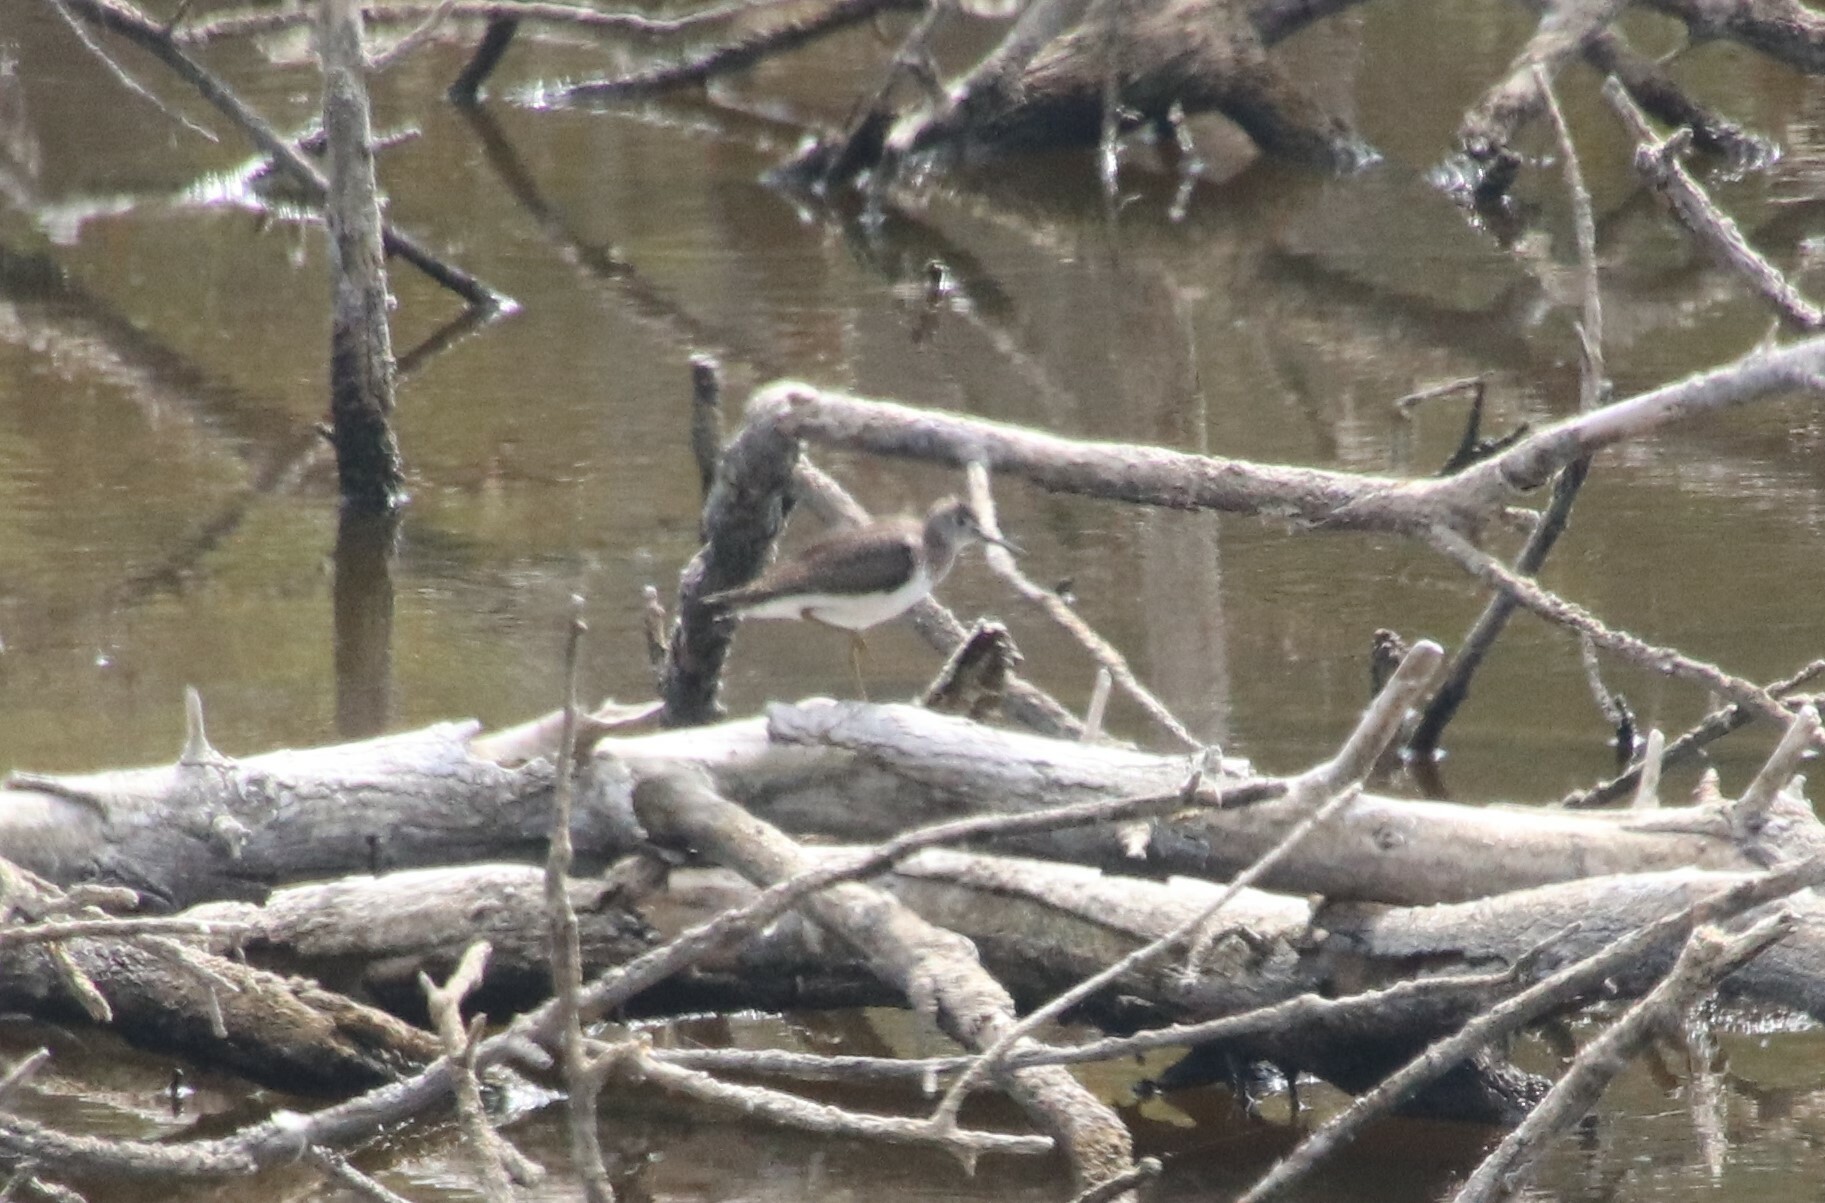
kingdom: Animalia
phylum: Chordata
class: Aves
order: Charadriiformes
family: Scolopacidae
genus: Tringa
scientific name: Tringa solitaria
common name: Solitary sandpiper
